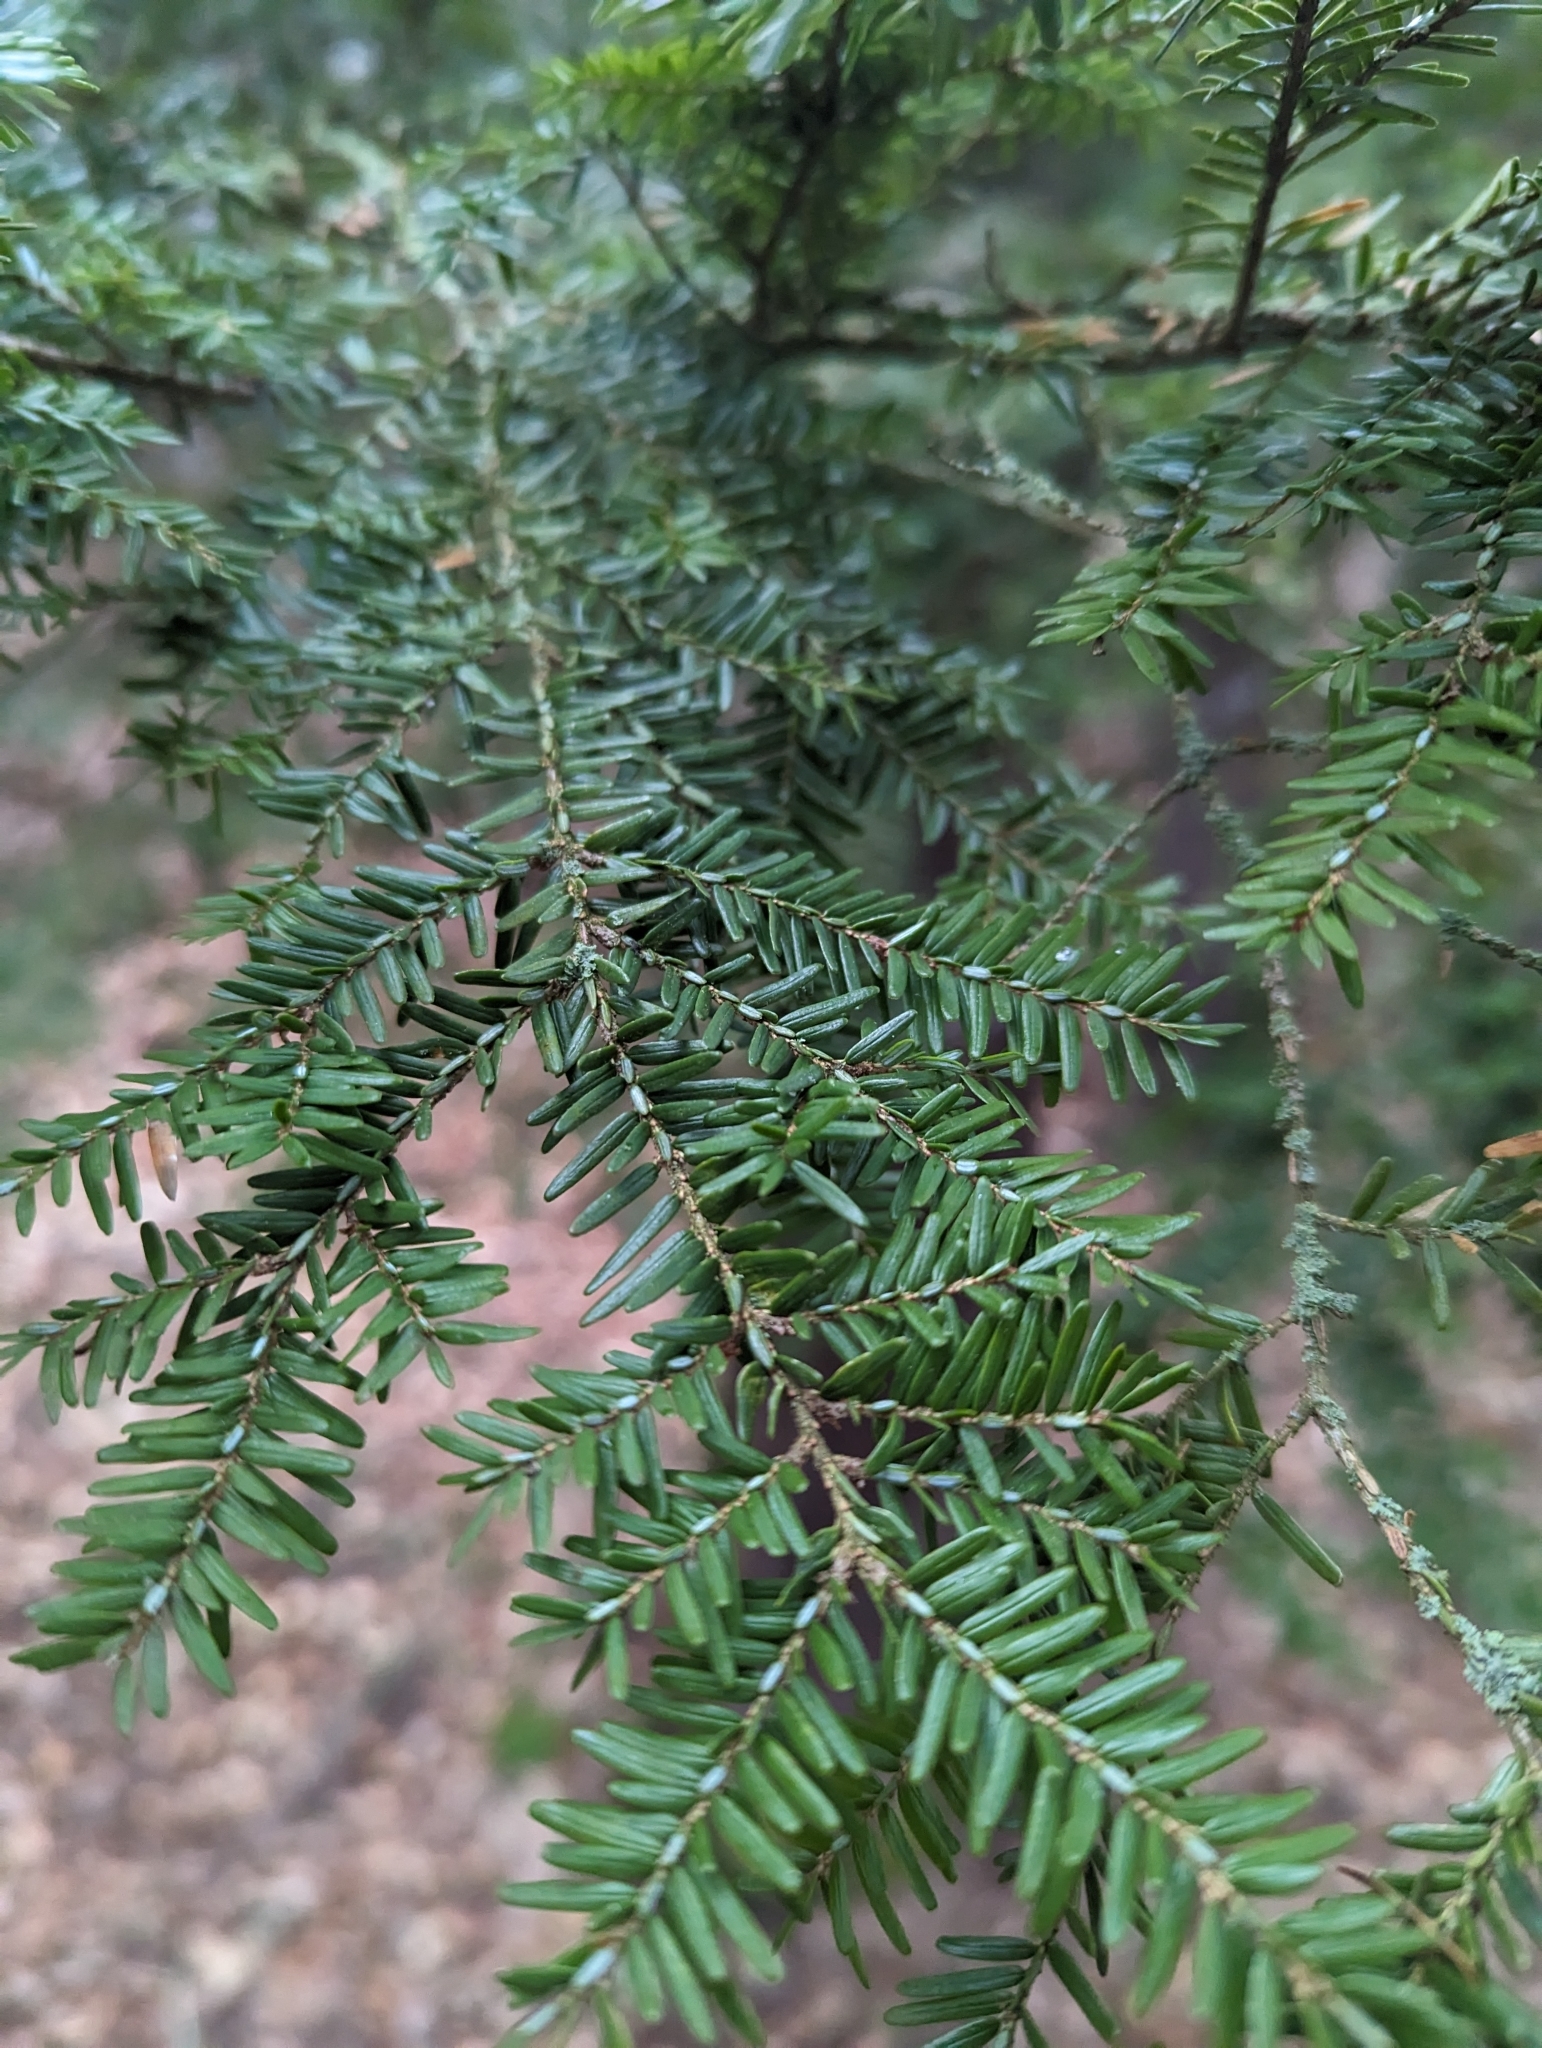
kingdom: Plantae
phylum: Tracheophyta
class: Pinopsida
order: Pinales
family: Pinaceae
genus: Tsuga
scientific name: Tsuga canadensis
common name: Eastern hemlock
